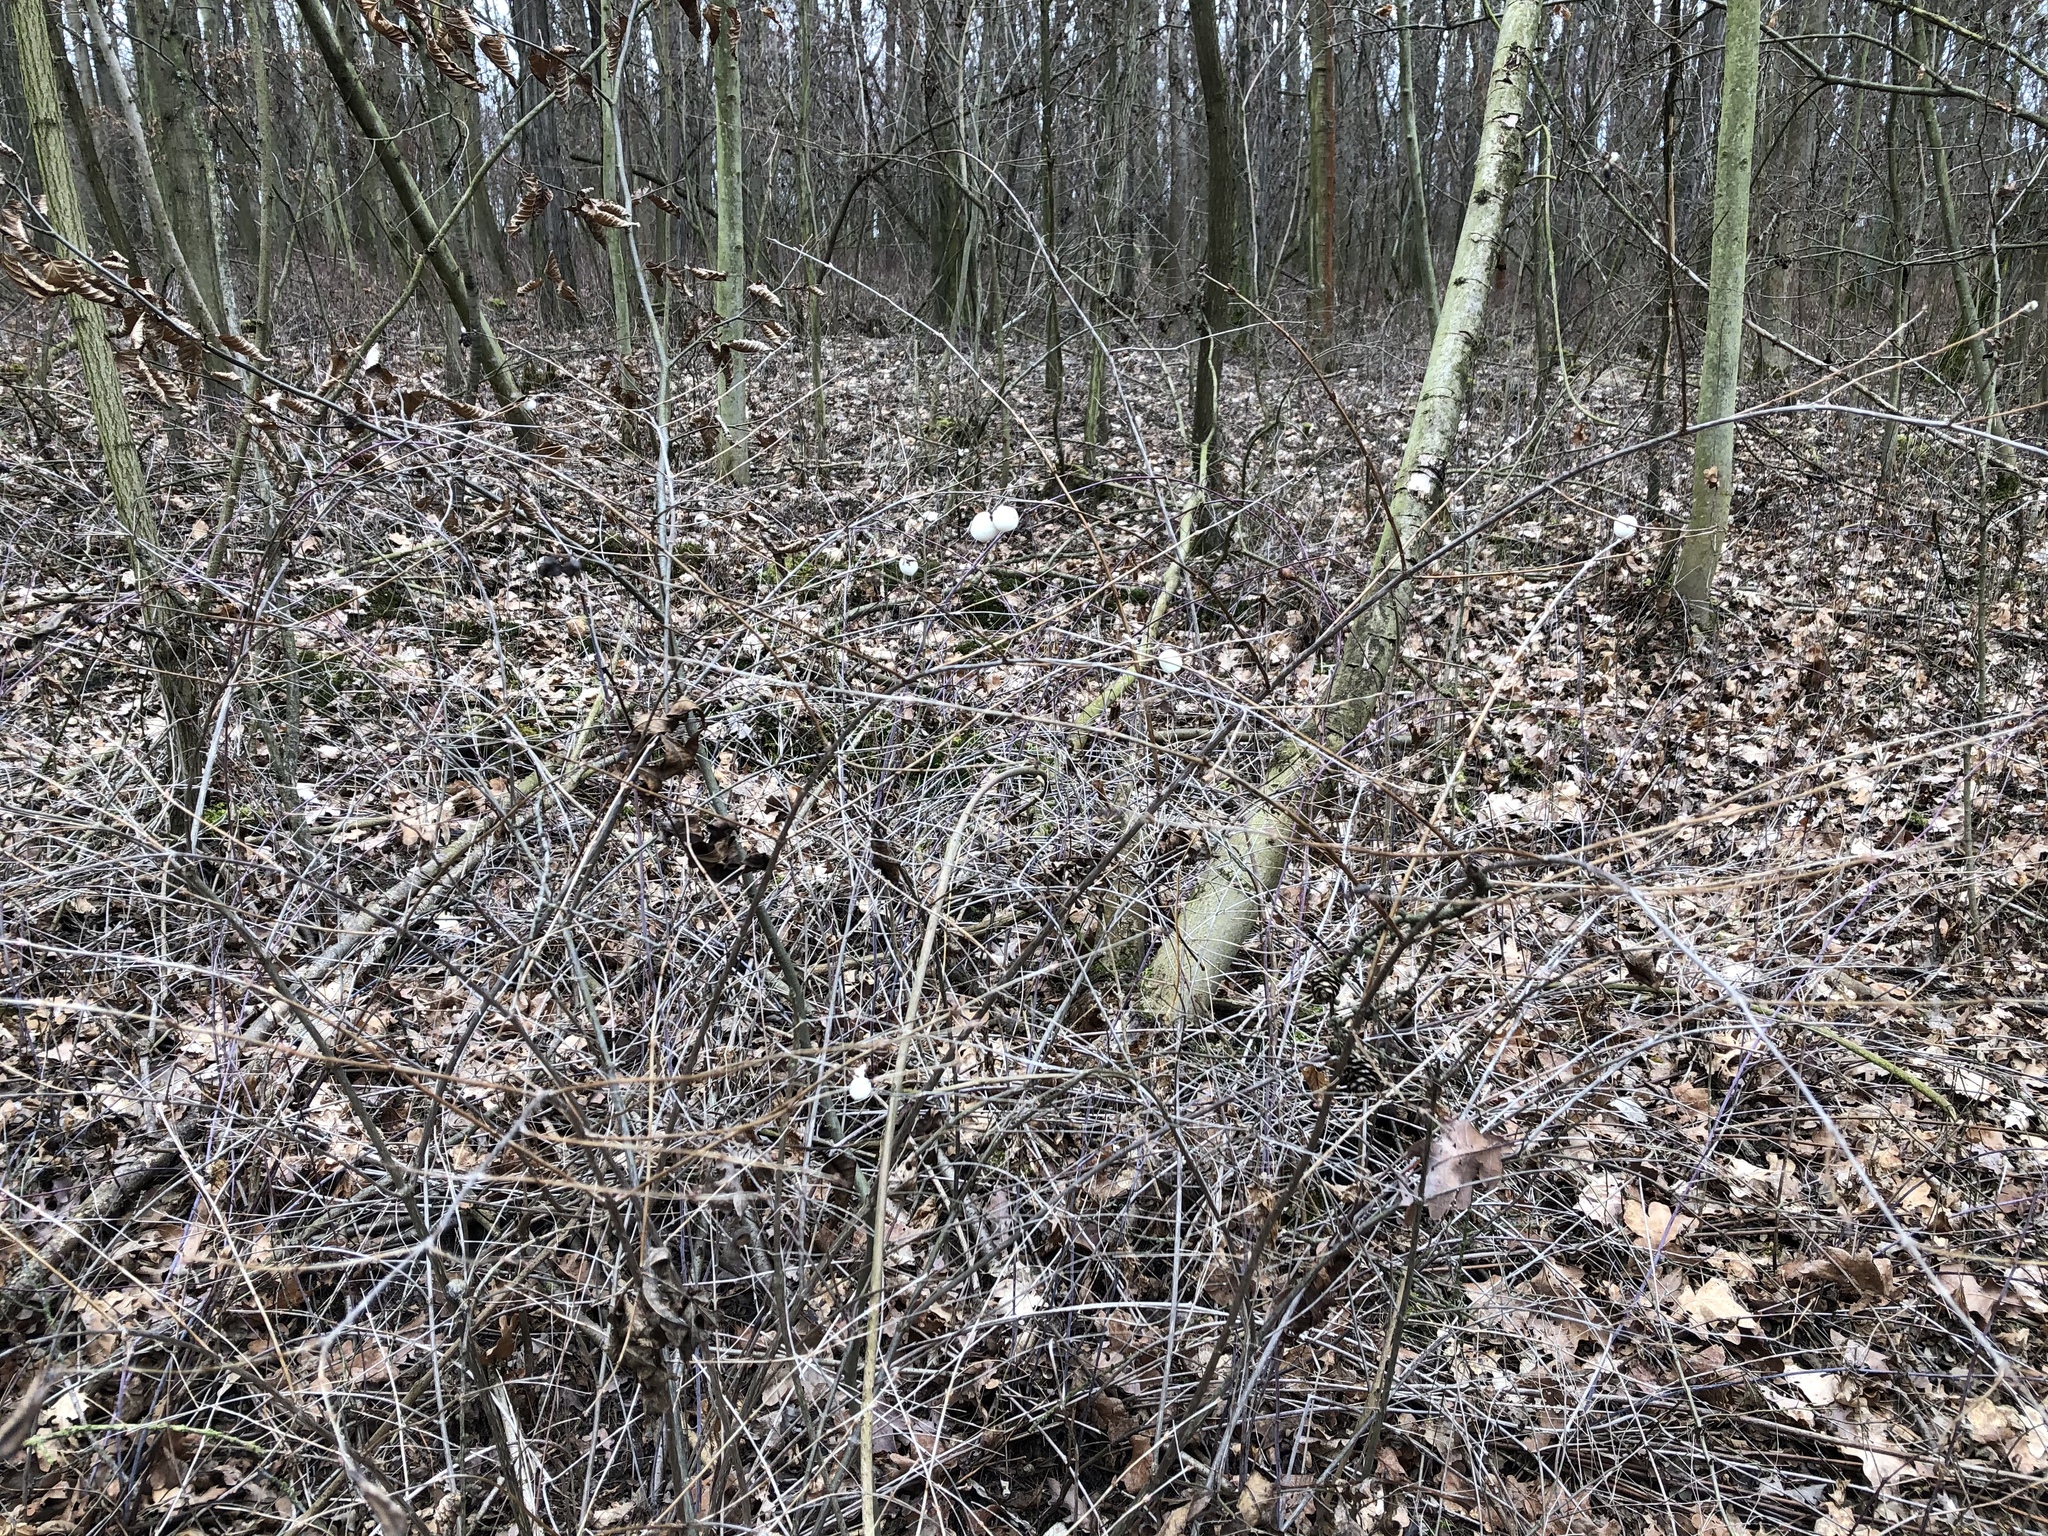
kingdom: Plantae
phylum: Tracheophyta
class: Magnoliopsida
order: Dipsacales
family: Caprifoliaceae
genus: Symphoricarpos
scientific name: Symphoricarpos albus
